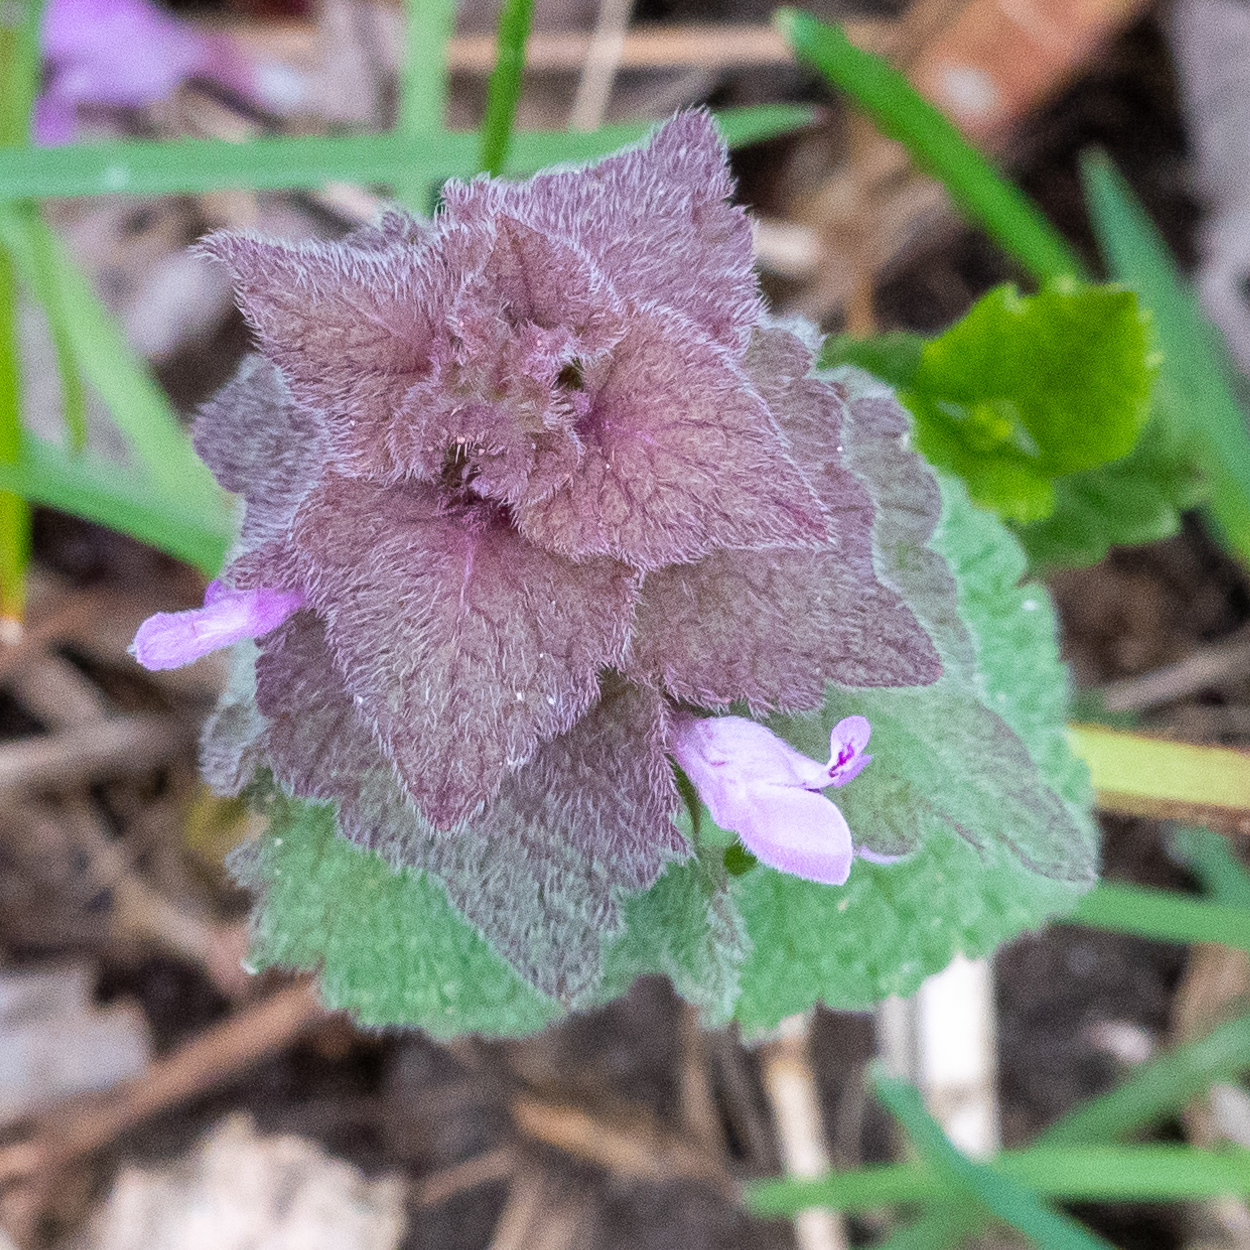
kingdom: Plantae
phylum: Tracheophyta
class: Magnoliopsida
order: Lamiales
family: Lamiaceae
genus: Lamium
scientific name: Lamium purpureum
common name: Red dead-nettle
